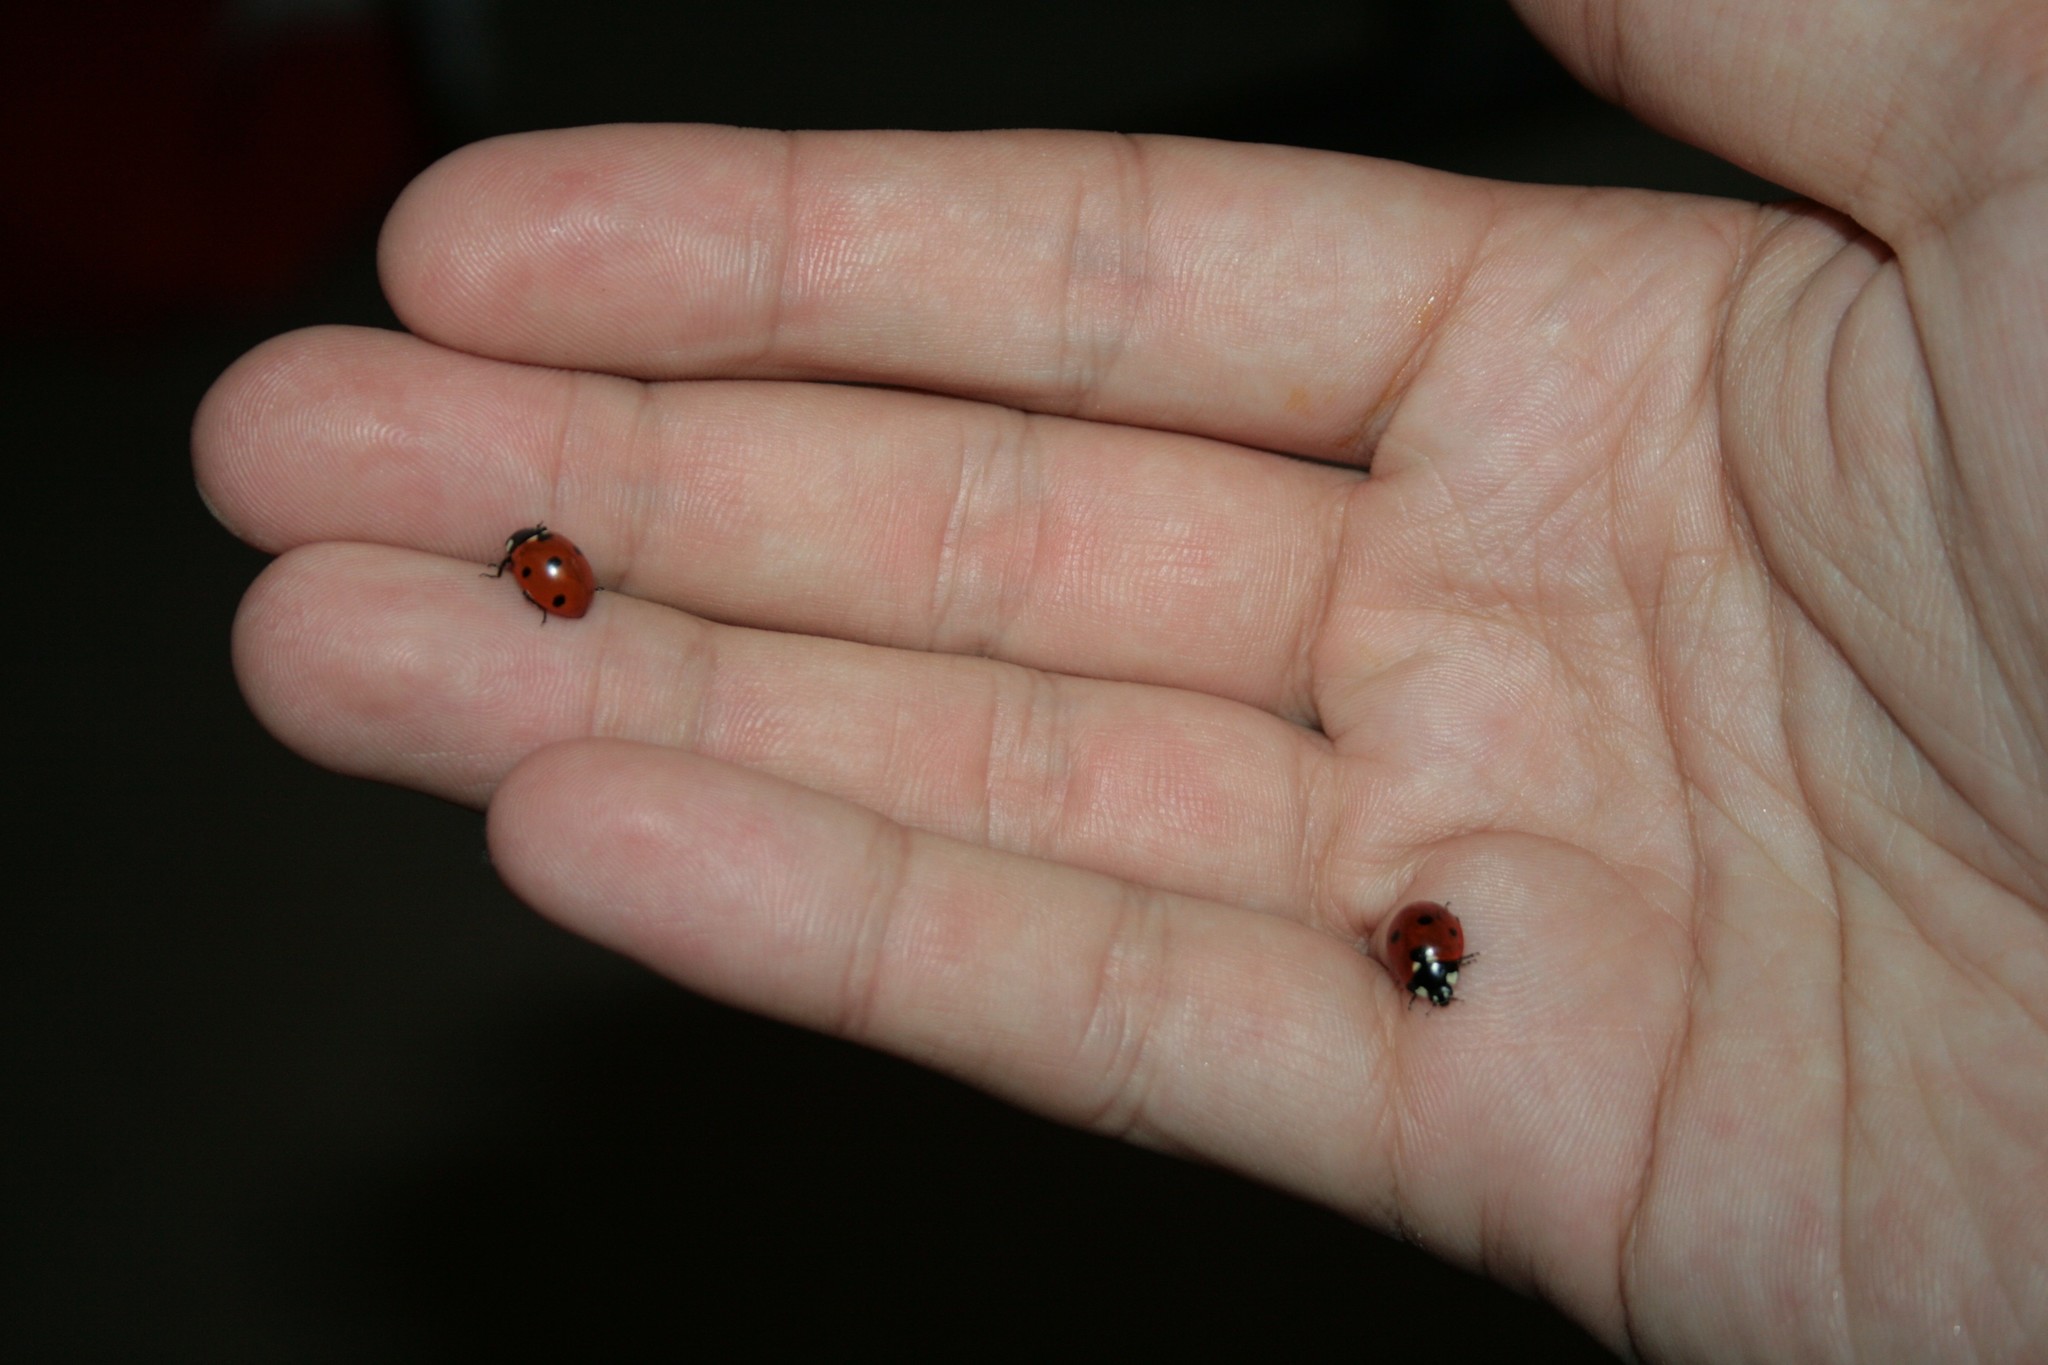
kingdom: Animalia
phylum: Arthropoda
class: Insecta
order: Coleoptera
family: Coccinellidae
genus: Coccinella
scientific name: Coccinella septempunctata
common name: Sevenspotted lady beetle
